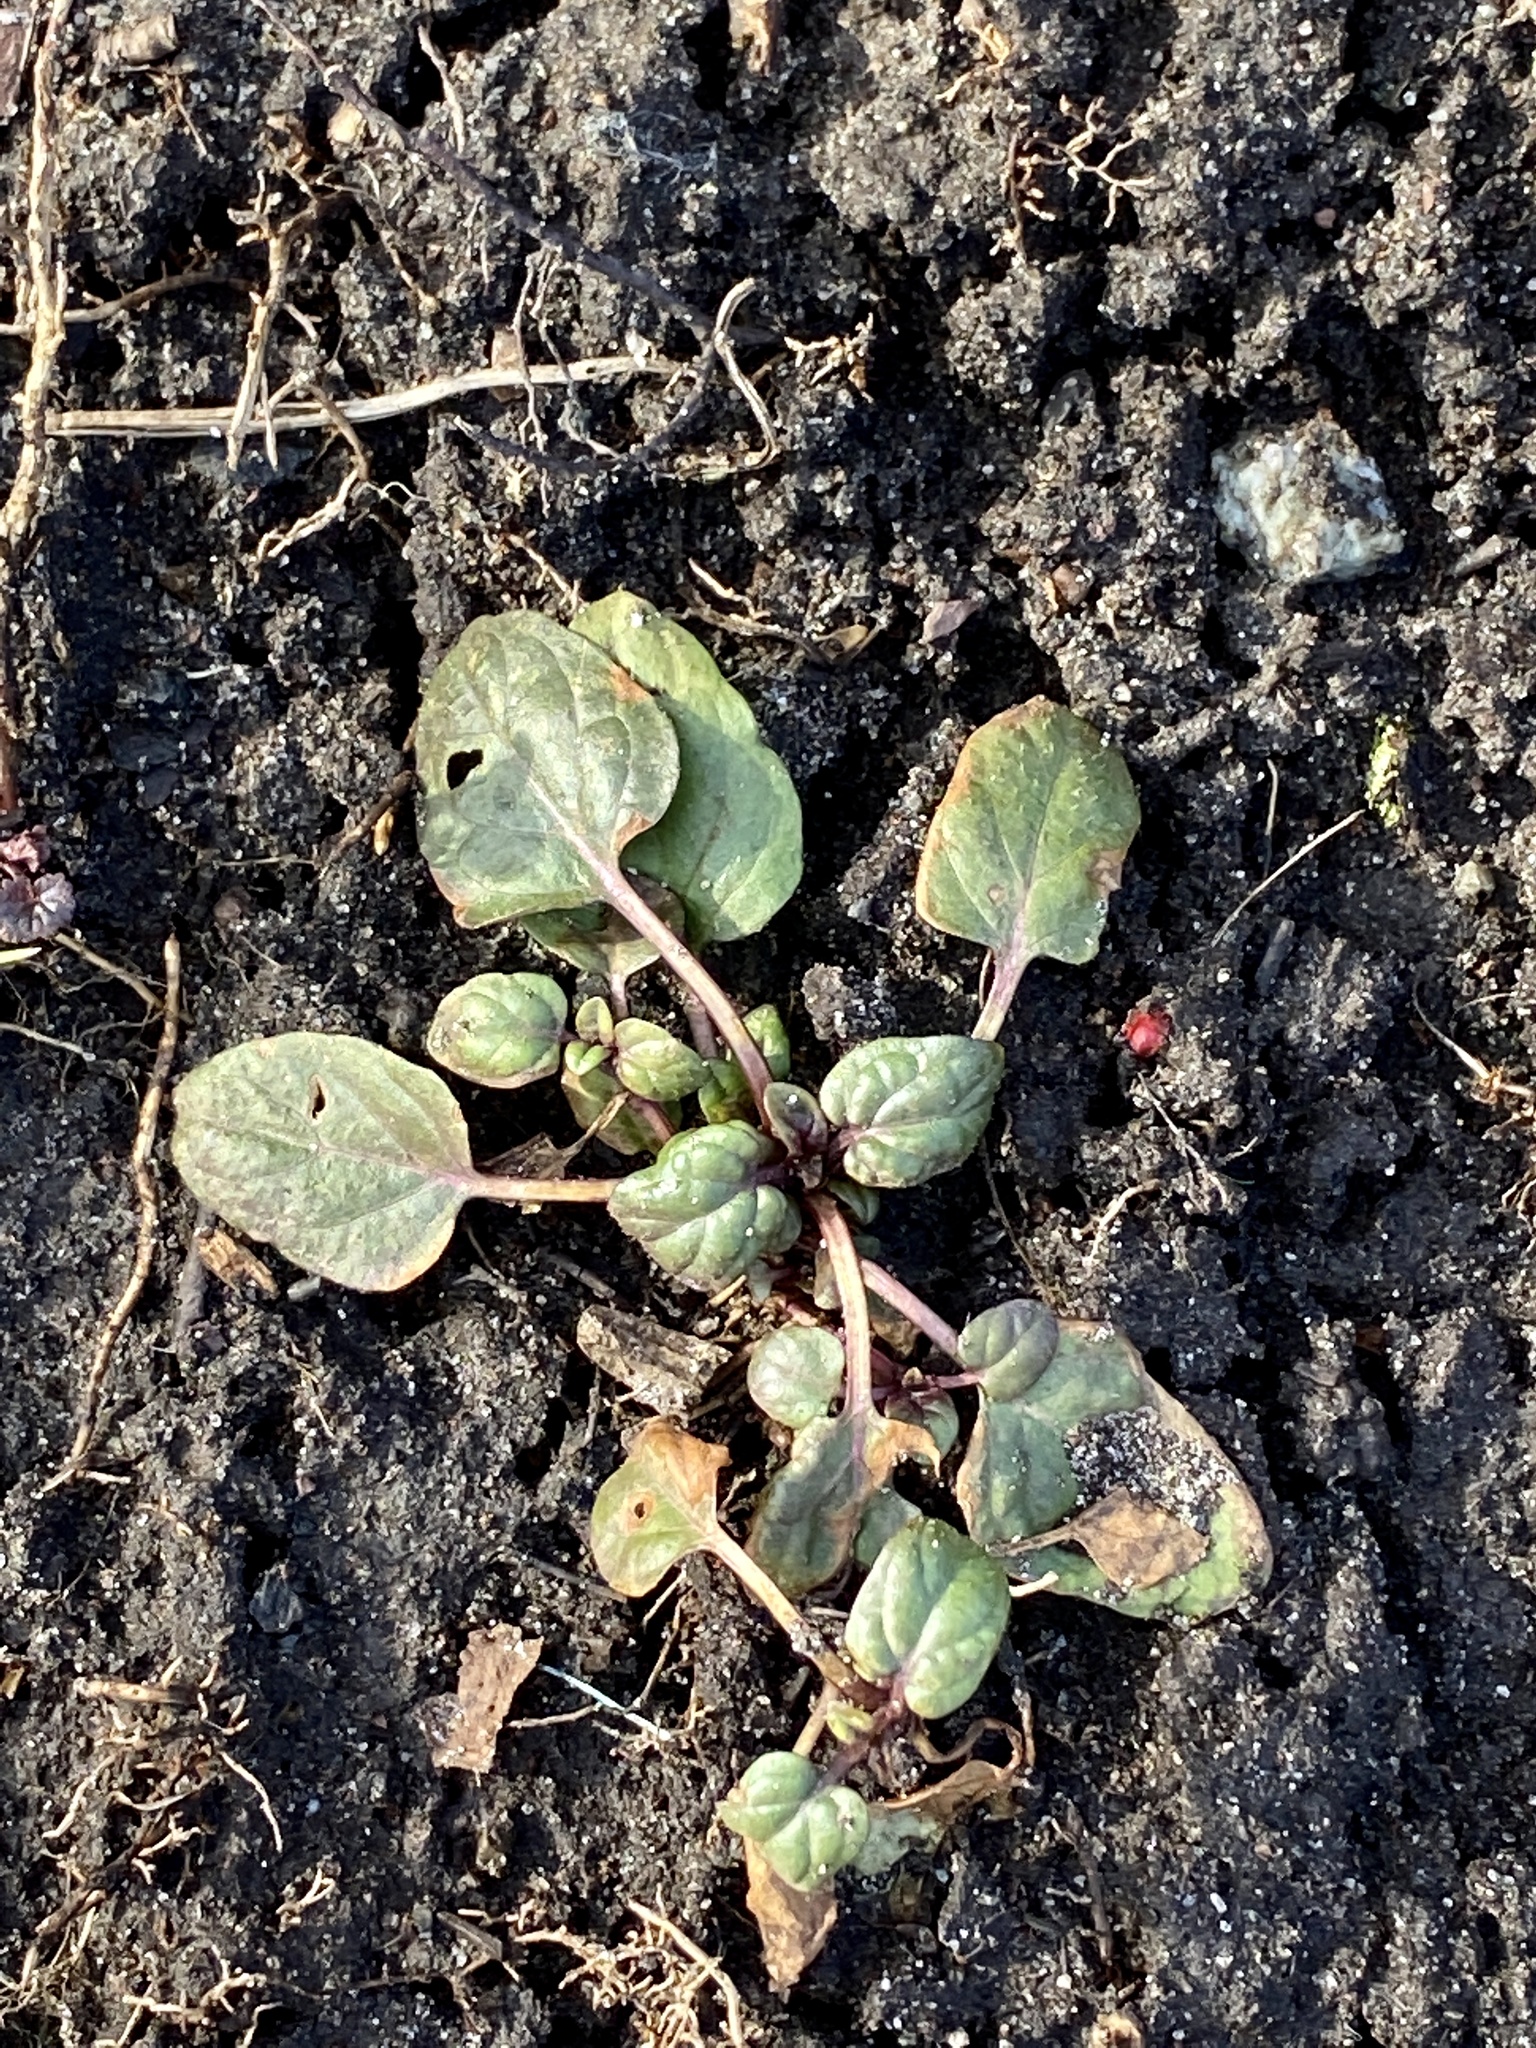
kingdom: Plantae
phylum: Tracheophyta
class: Magnoliopsida
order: Lamiales
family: Lamiaceae
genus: Prunella
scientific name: Prunella vulgaris
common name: Heal-all
